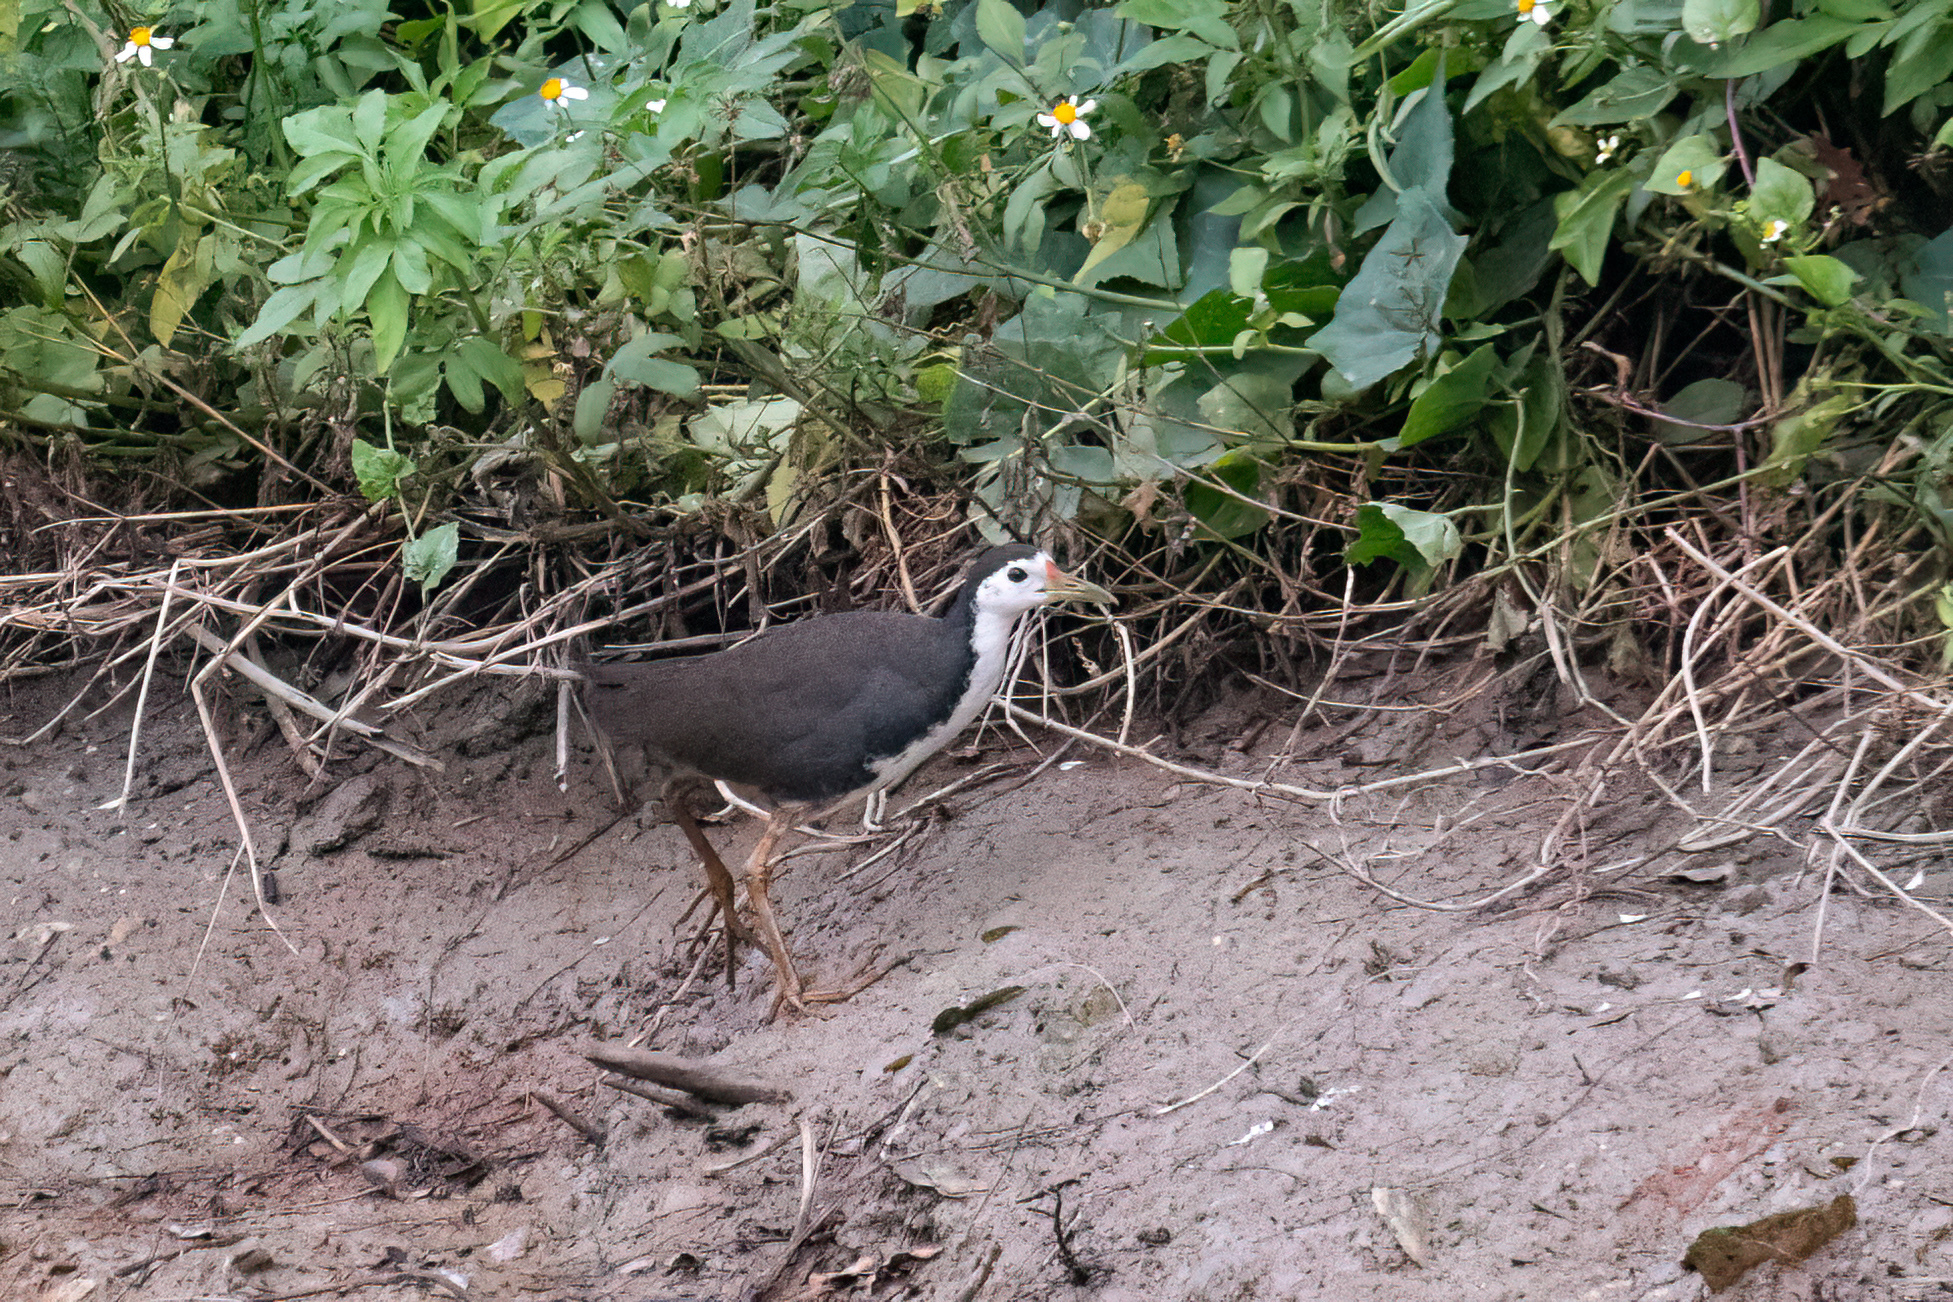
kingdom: Animalia
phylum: Chordata
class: Aves
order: Gruiformes
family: Rallidae
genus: Amaurornis
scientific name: Amaurornis phoenicurus
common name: White-breasted waterhen
